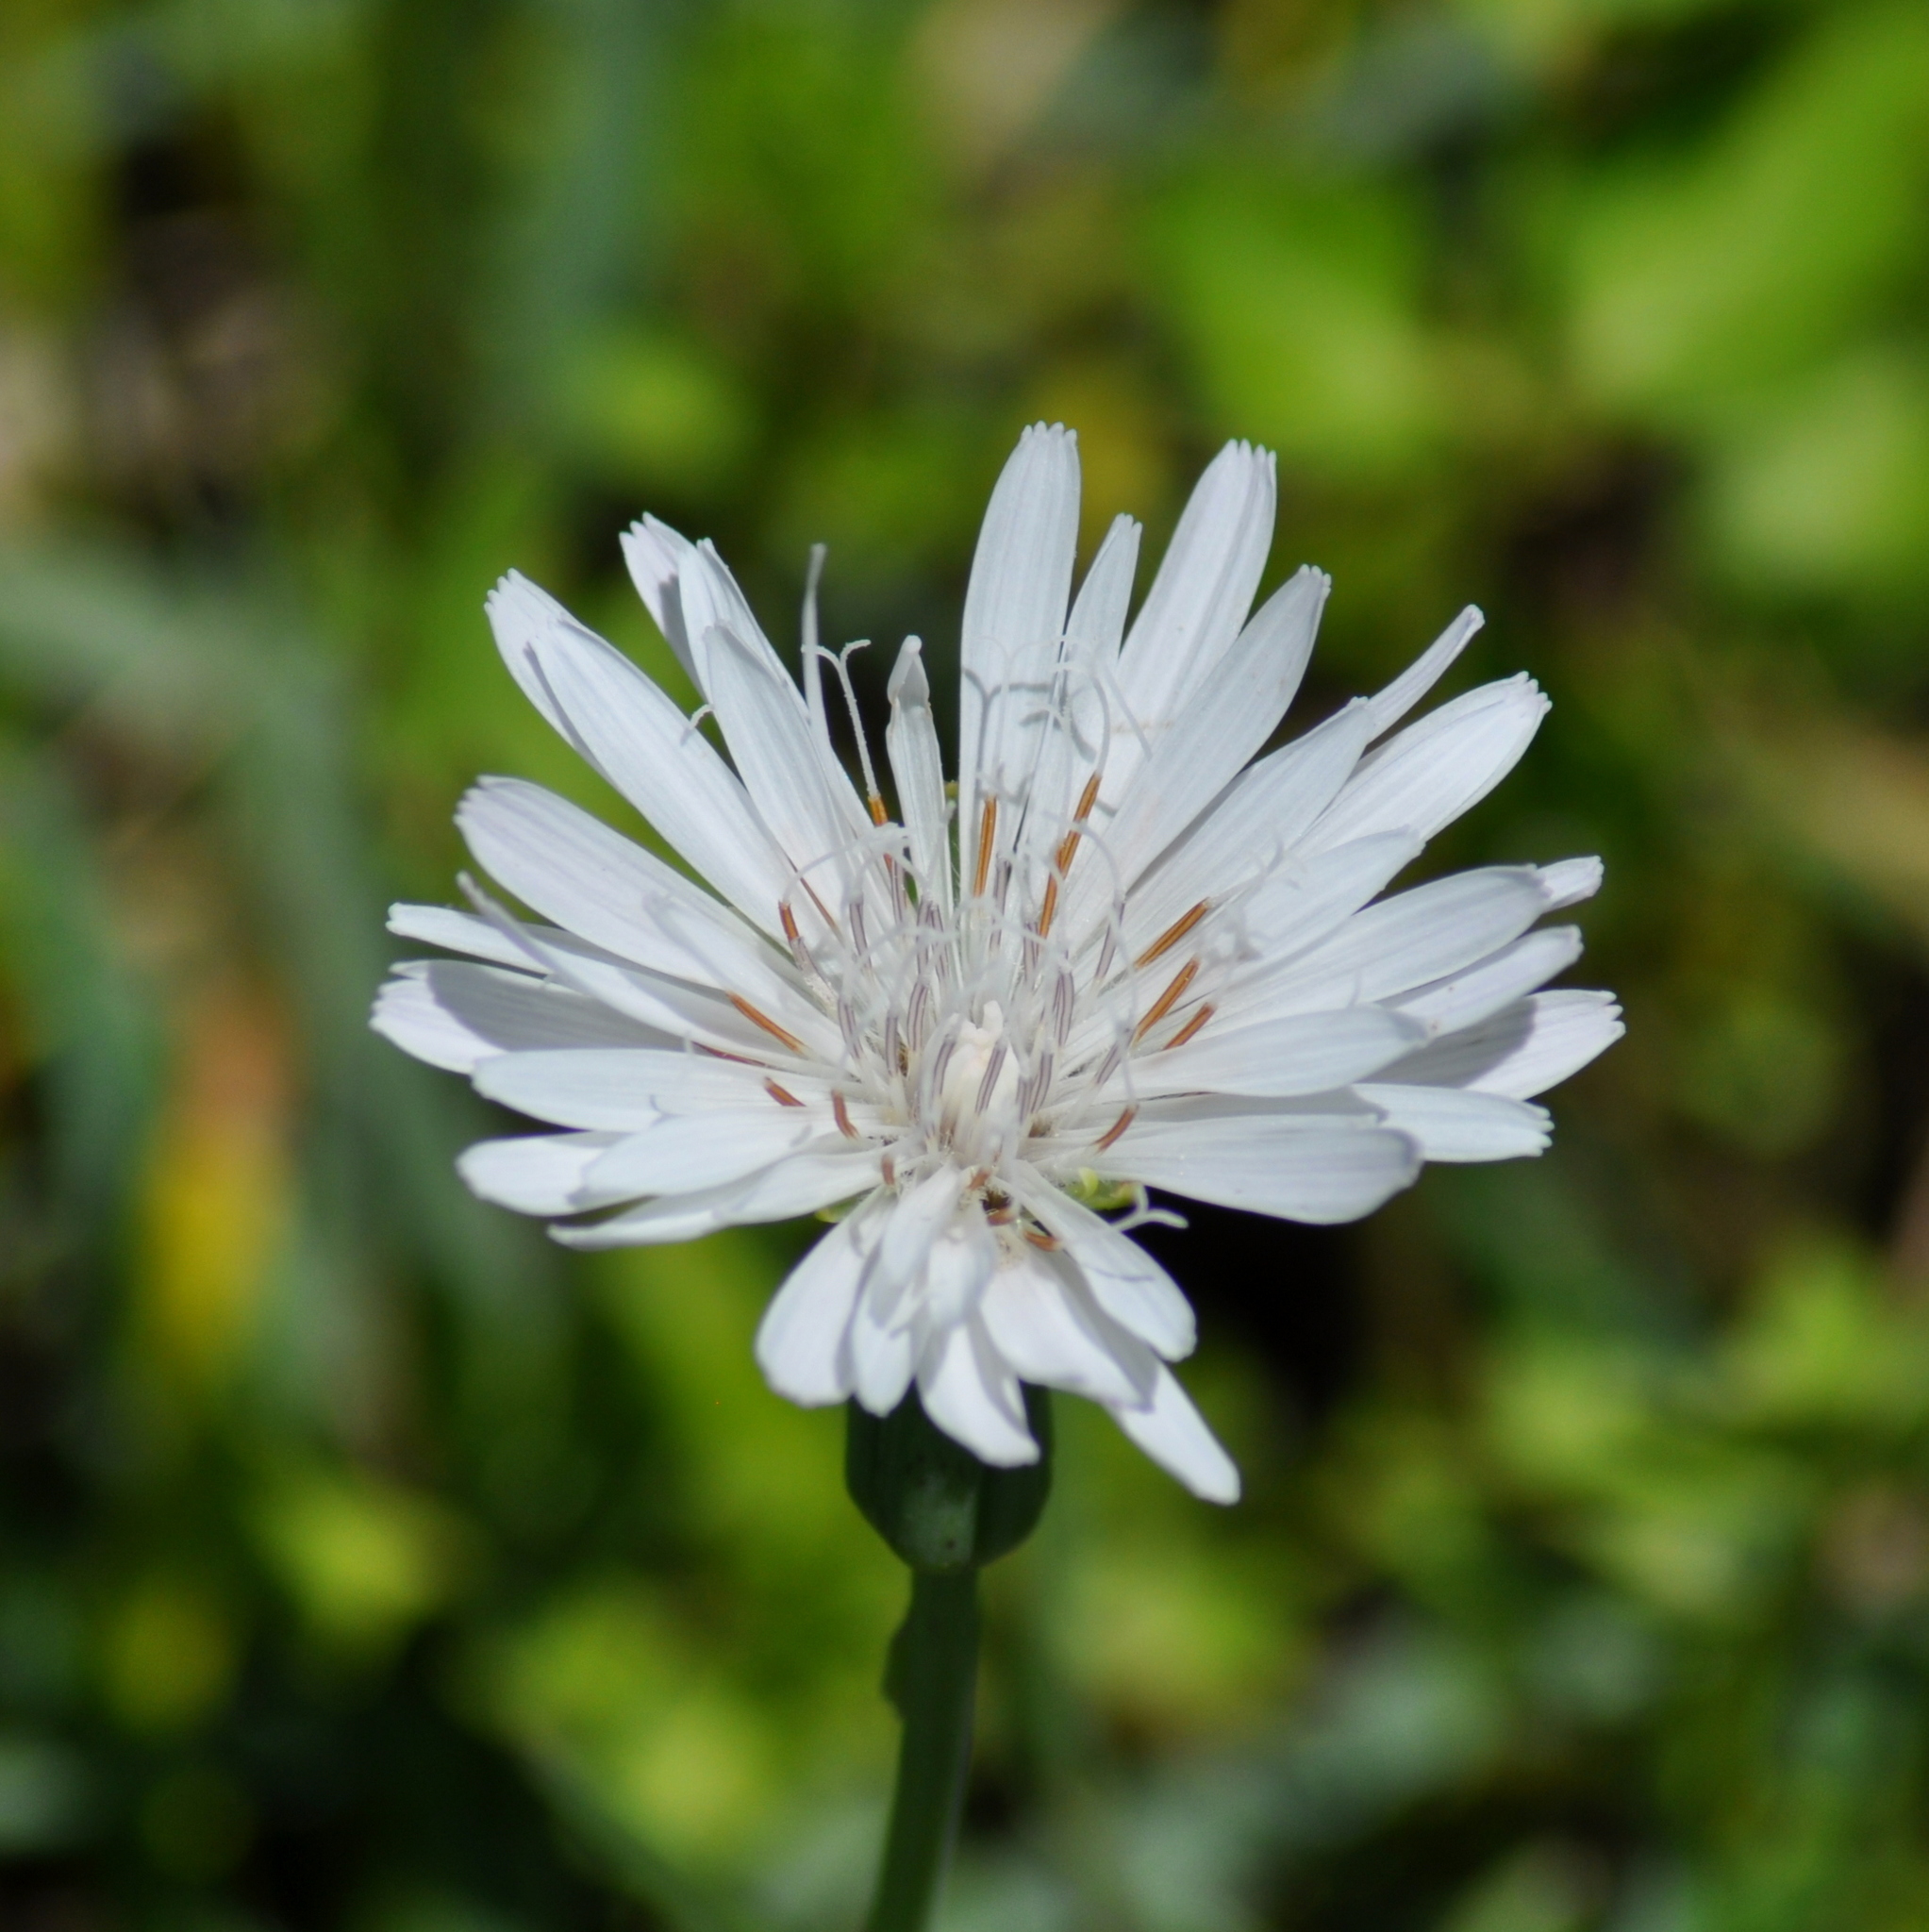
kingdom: Plantae
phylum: Tracheophyta
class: Magnoliopsida
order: Asterales
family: Asteraceae
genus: Picrosia
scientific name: Picrosia longifolia
